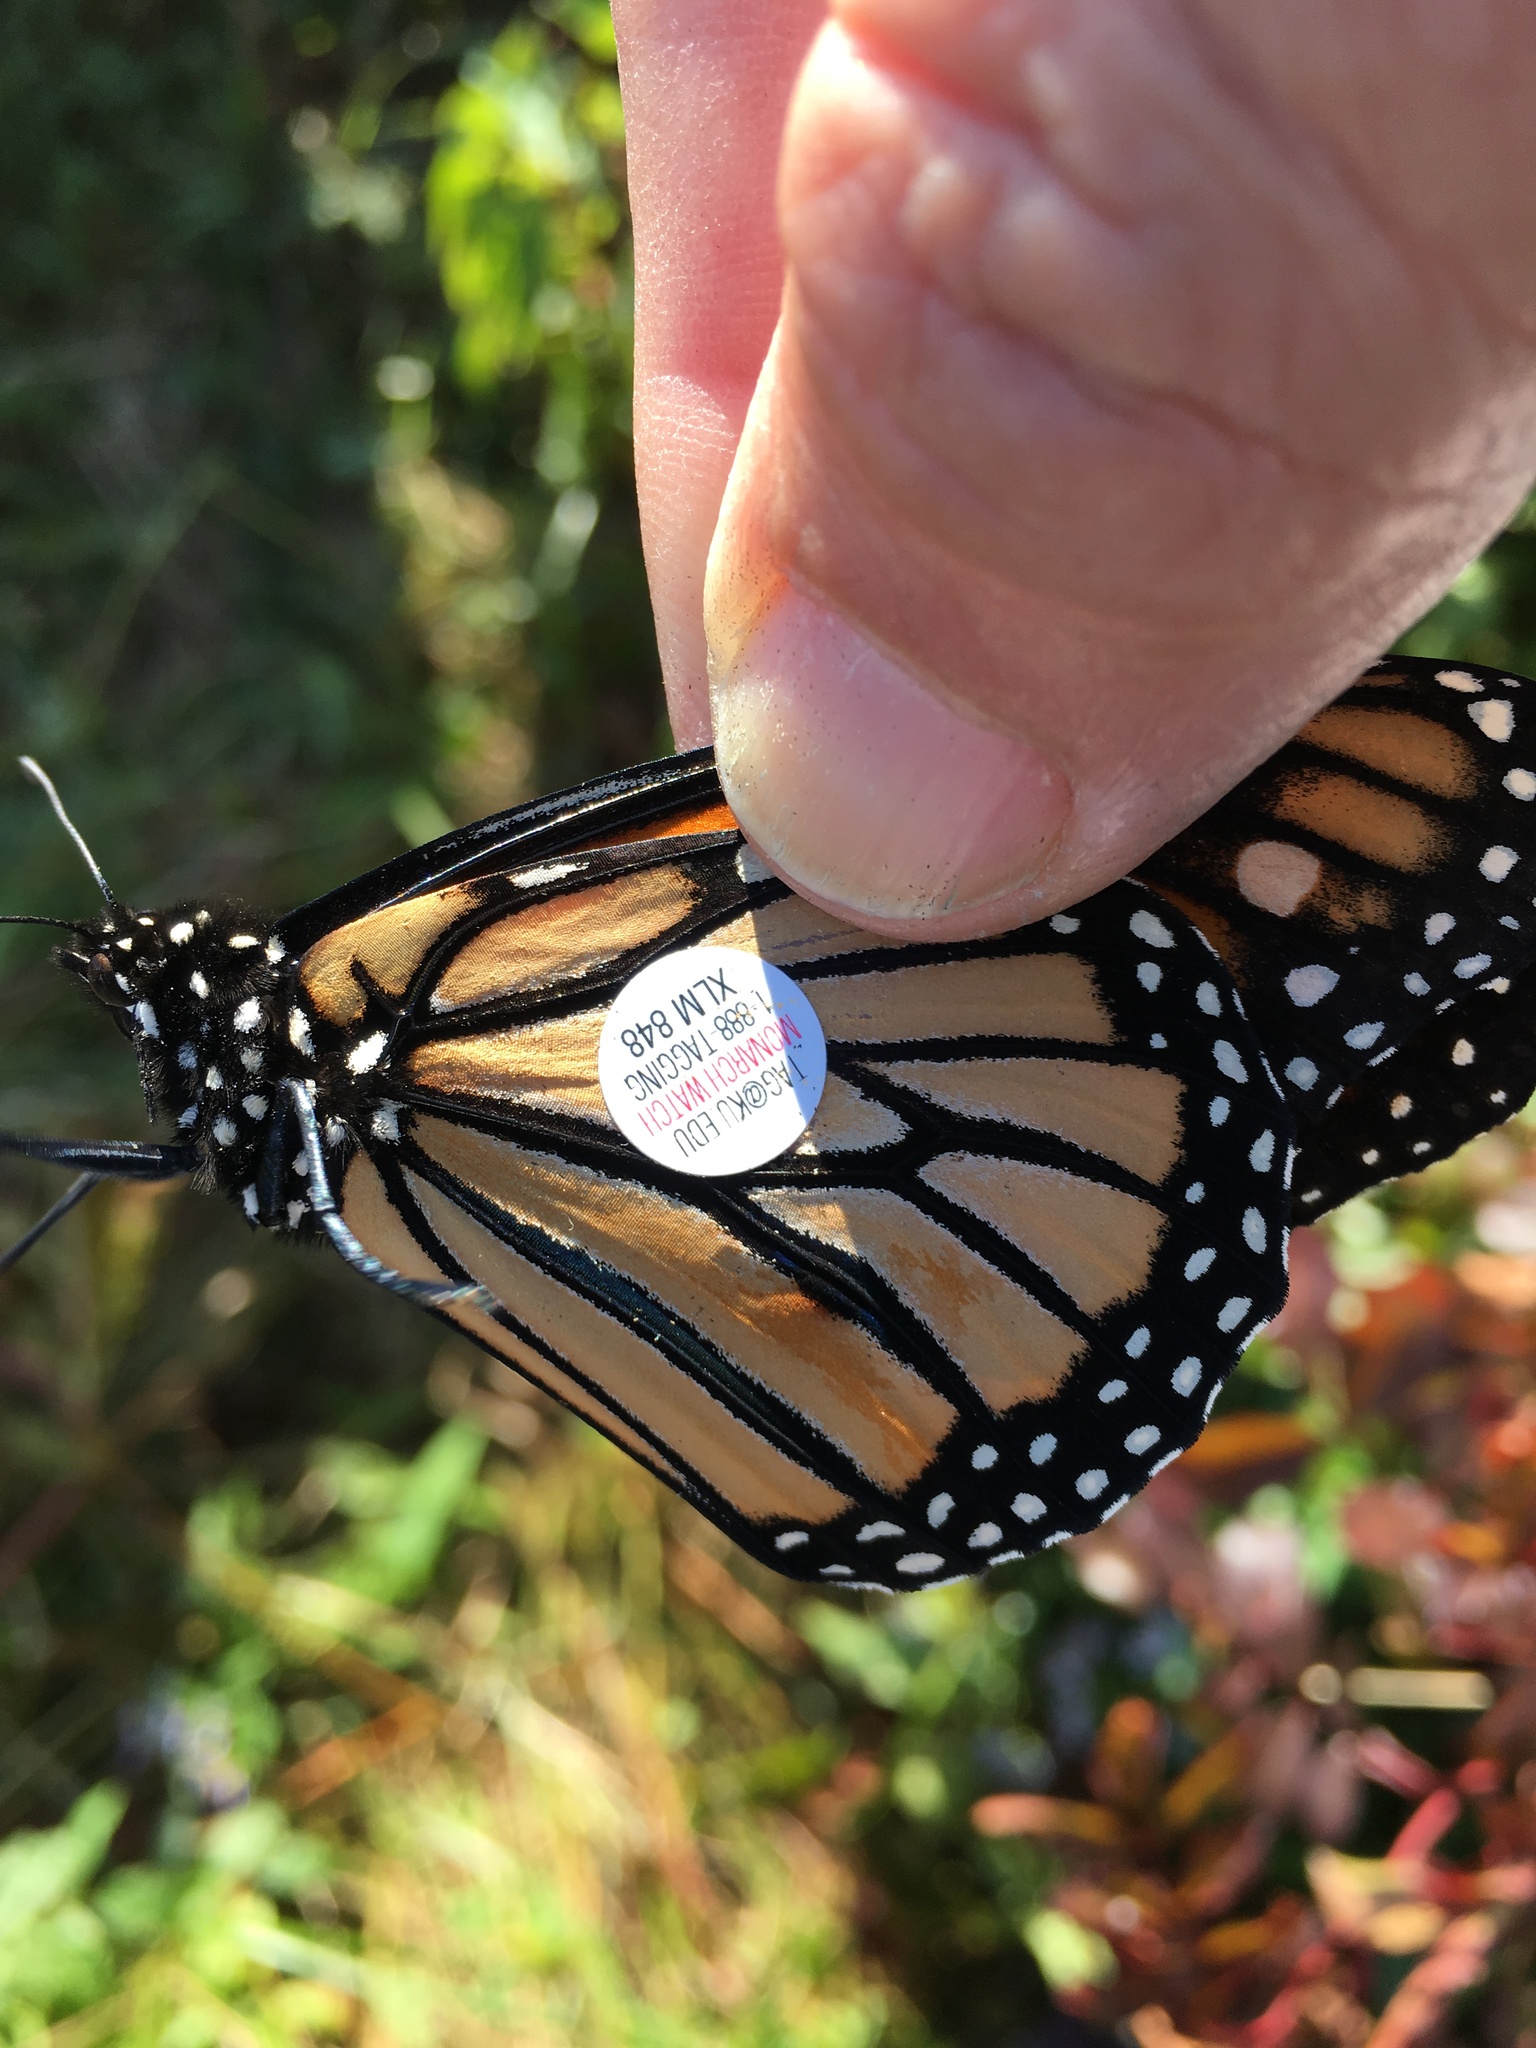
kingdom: Animalia
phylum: Arthropoda
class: Insecta
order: Lepidoptera
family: Nymphalidae
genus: Danaus
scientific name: Danaus plexippus
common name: Monarch
